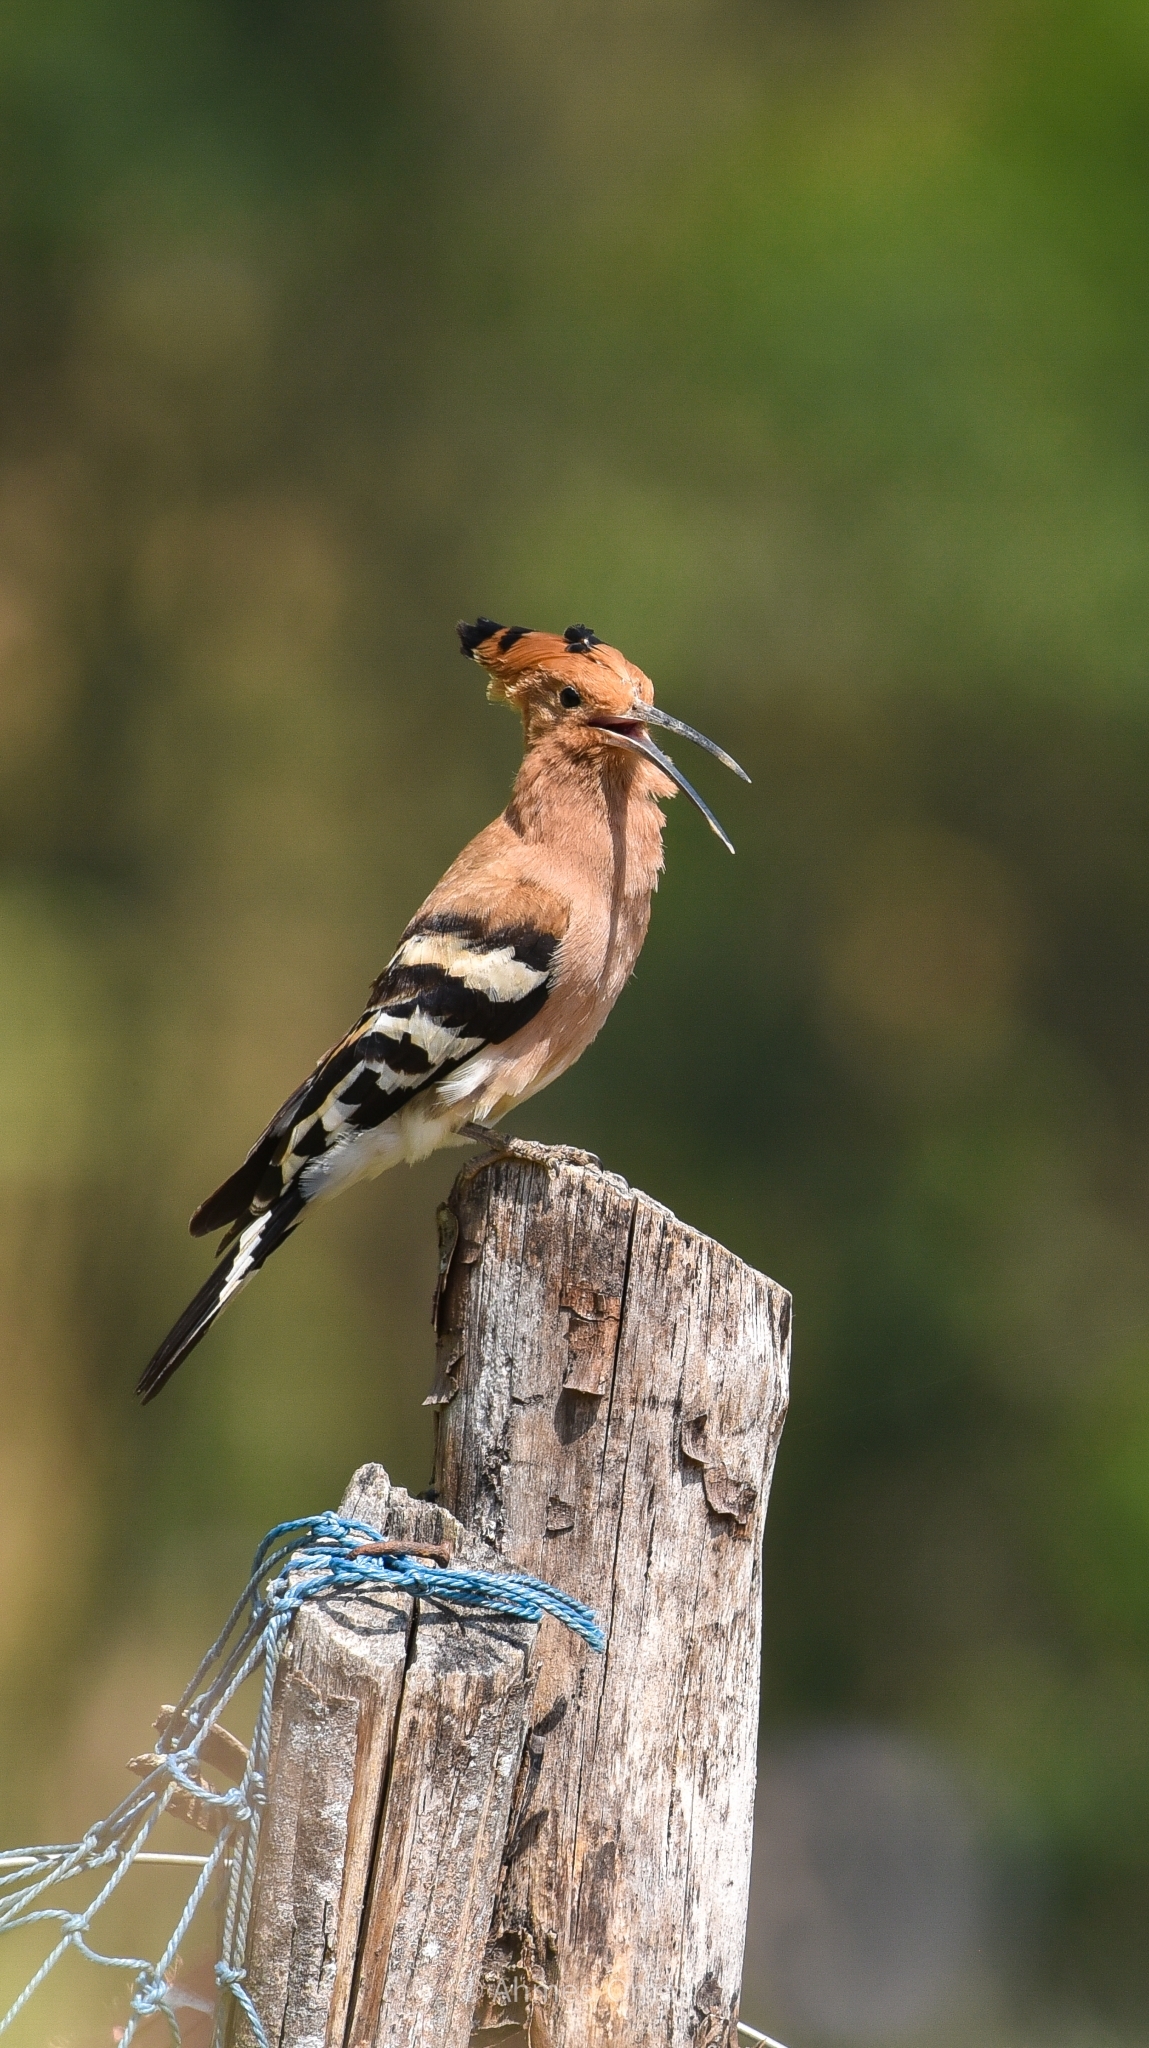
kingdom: Animalia
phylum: Chordata
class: Aves
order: Bucerotiformes
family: Upupidae
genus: Upupa
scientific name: Upupa epops
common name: Eurasian hoopoe
